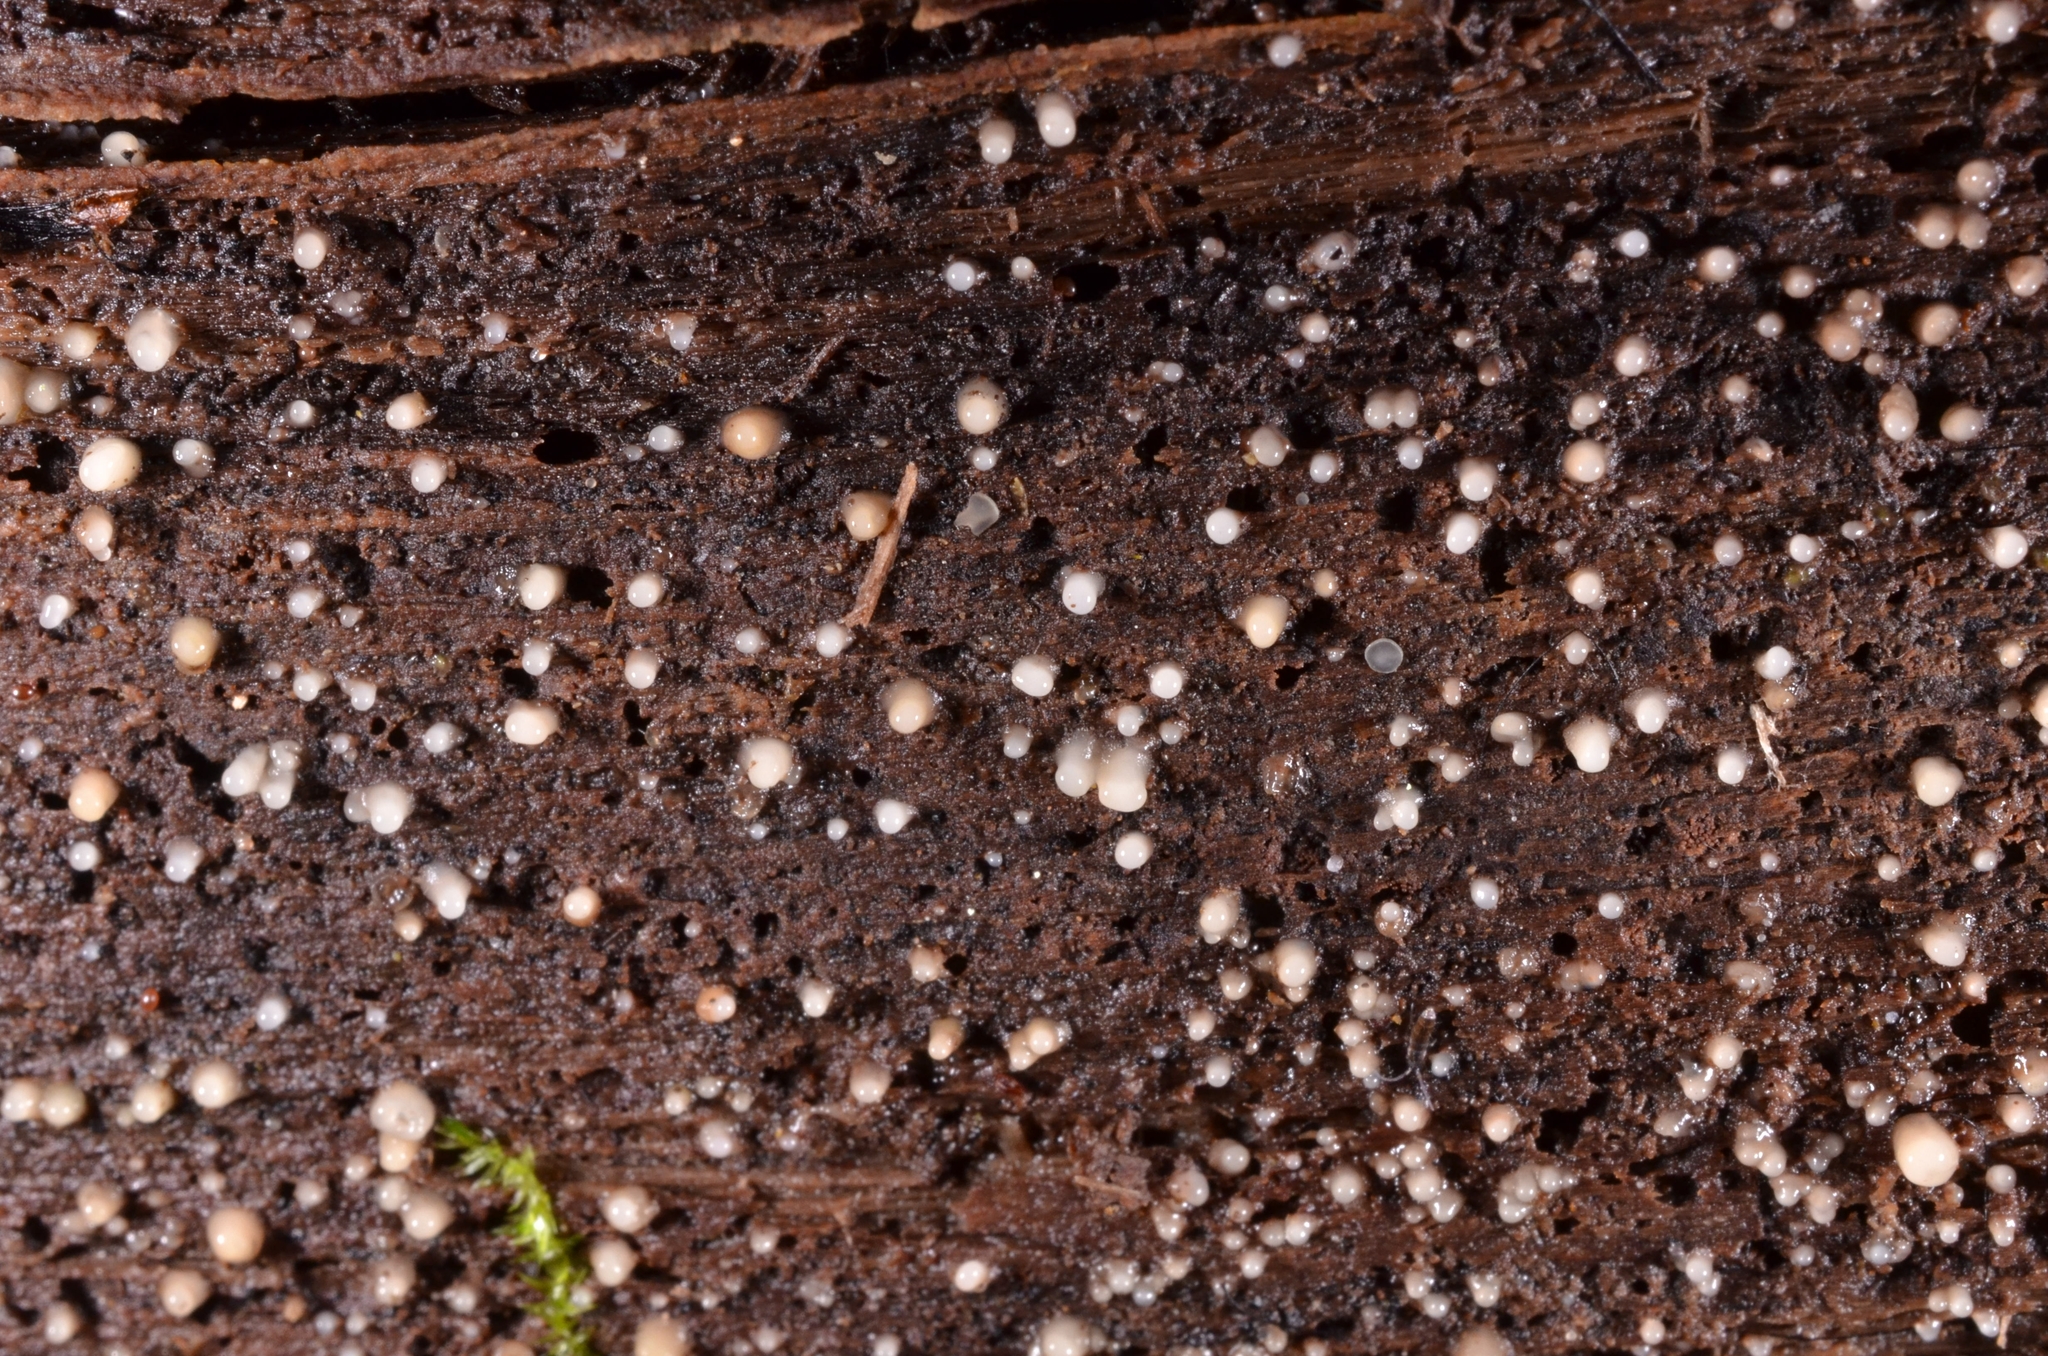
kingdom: Fungi
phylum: Basidiomycota
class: Atractiellomycetes
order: Atractiellales
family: Phleogenaceae
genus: Helicogloea
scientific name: Helicogloea compressa
